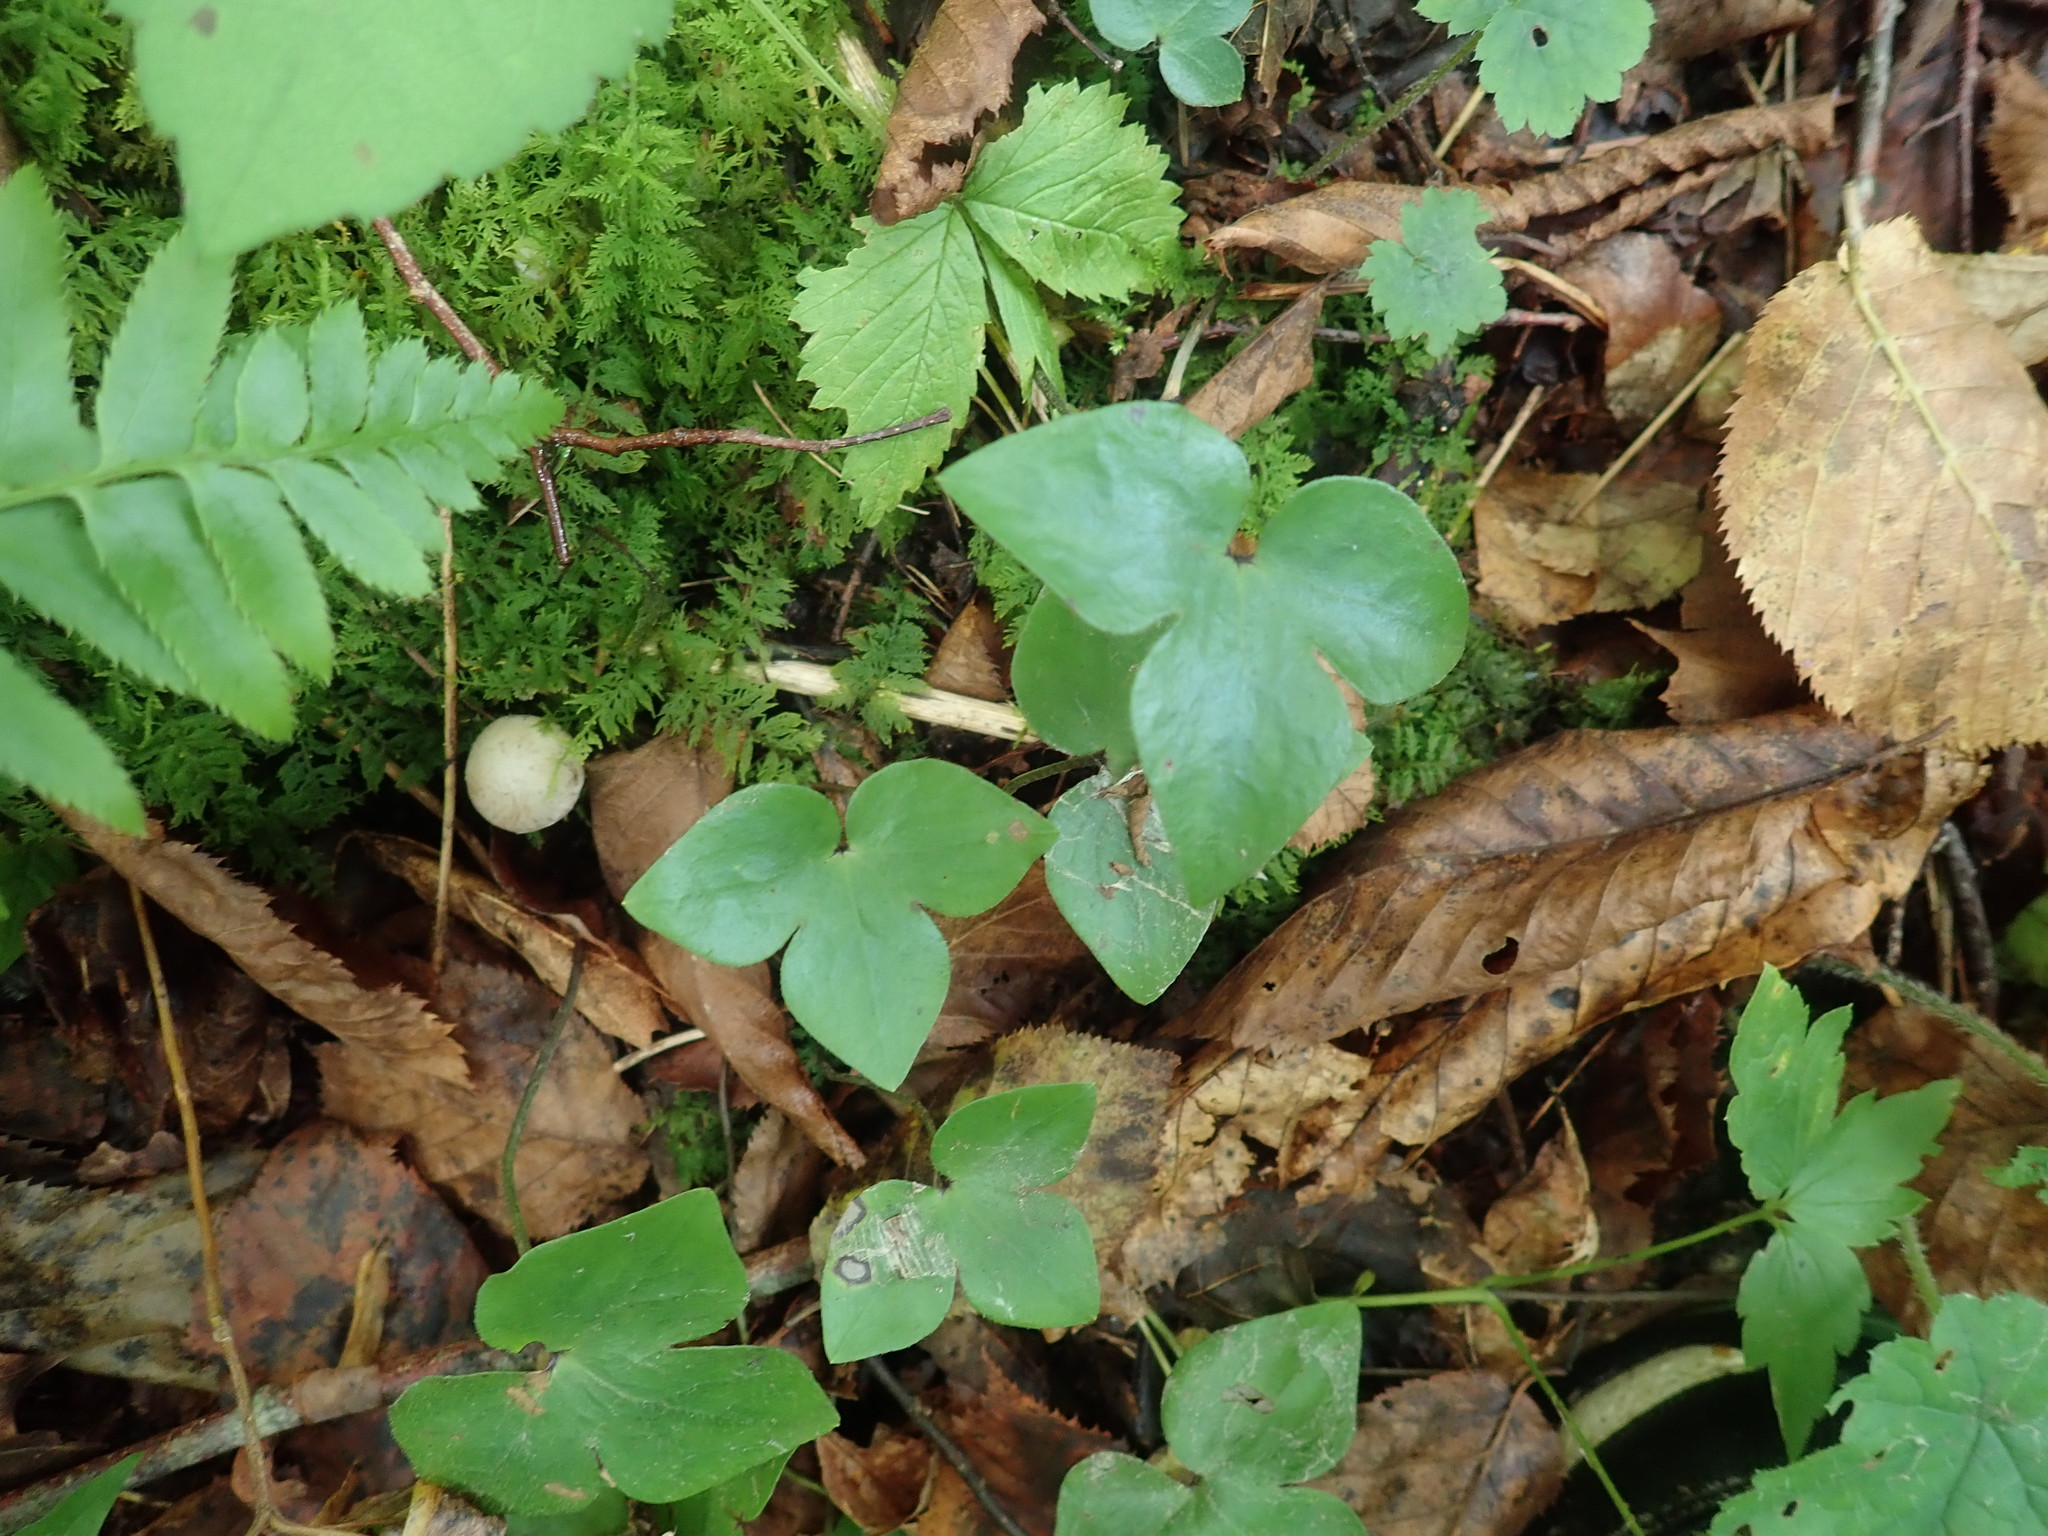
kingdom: Plantae
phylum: Tracheophyta
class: Magnoliopsida
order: Ranunculales
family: Ranunculaceae
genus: Hepatica
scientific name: Hepatica acutiloba
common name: Sharp-lobed hepatica
